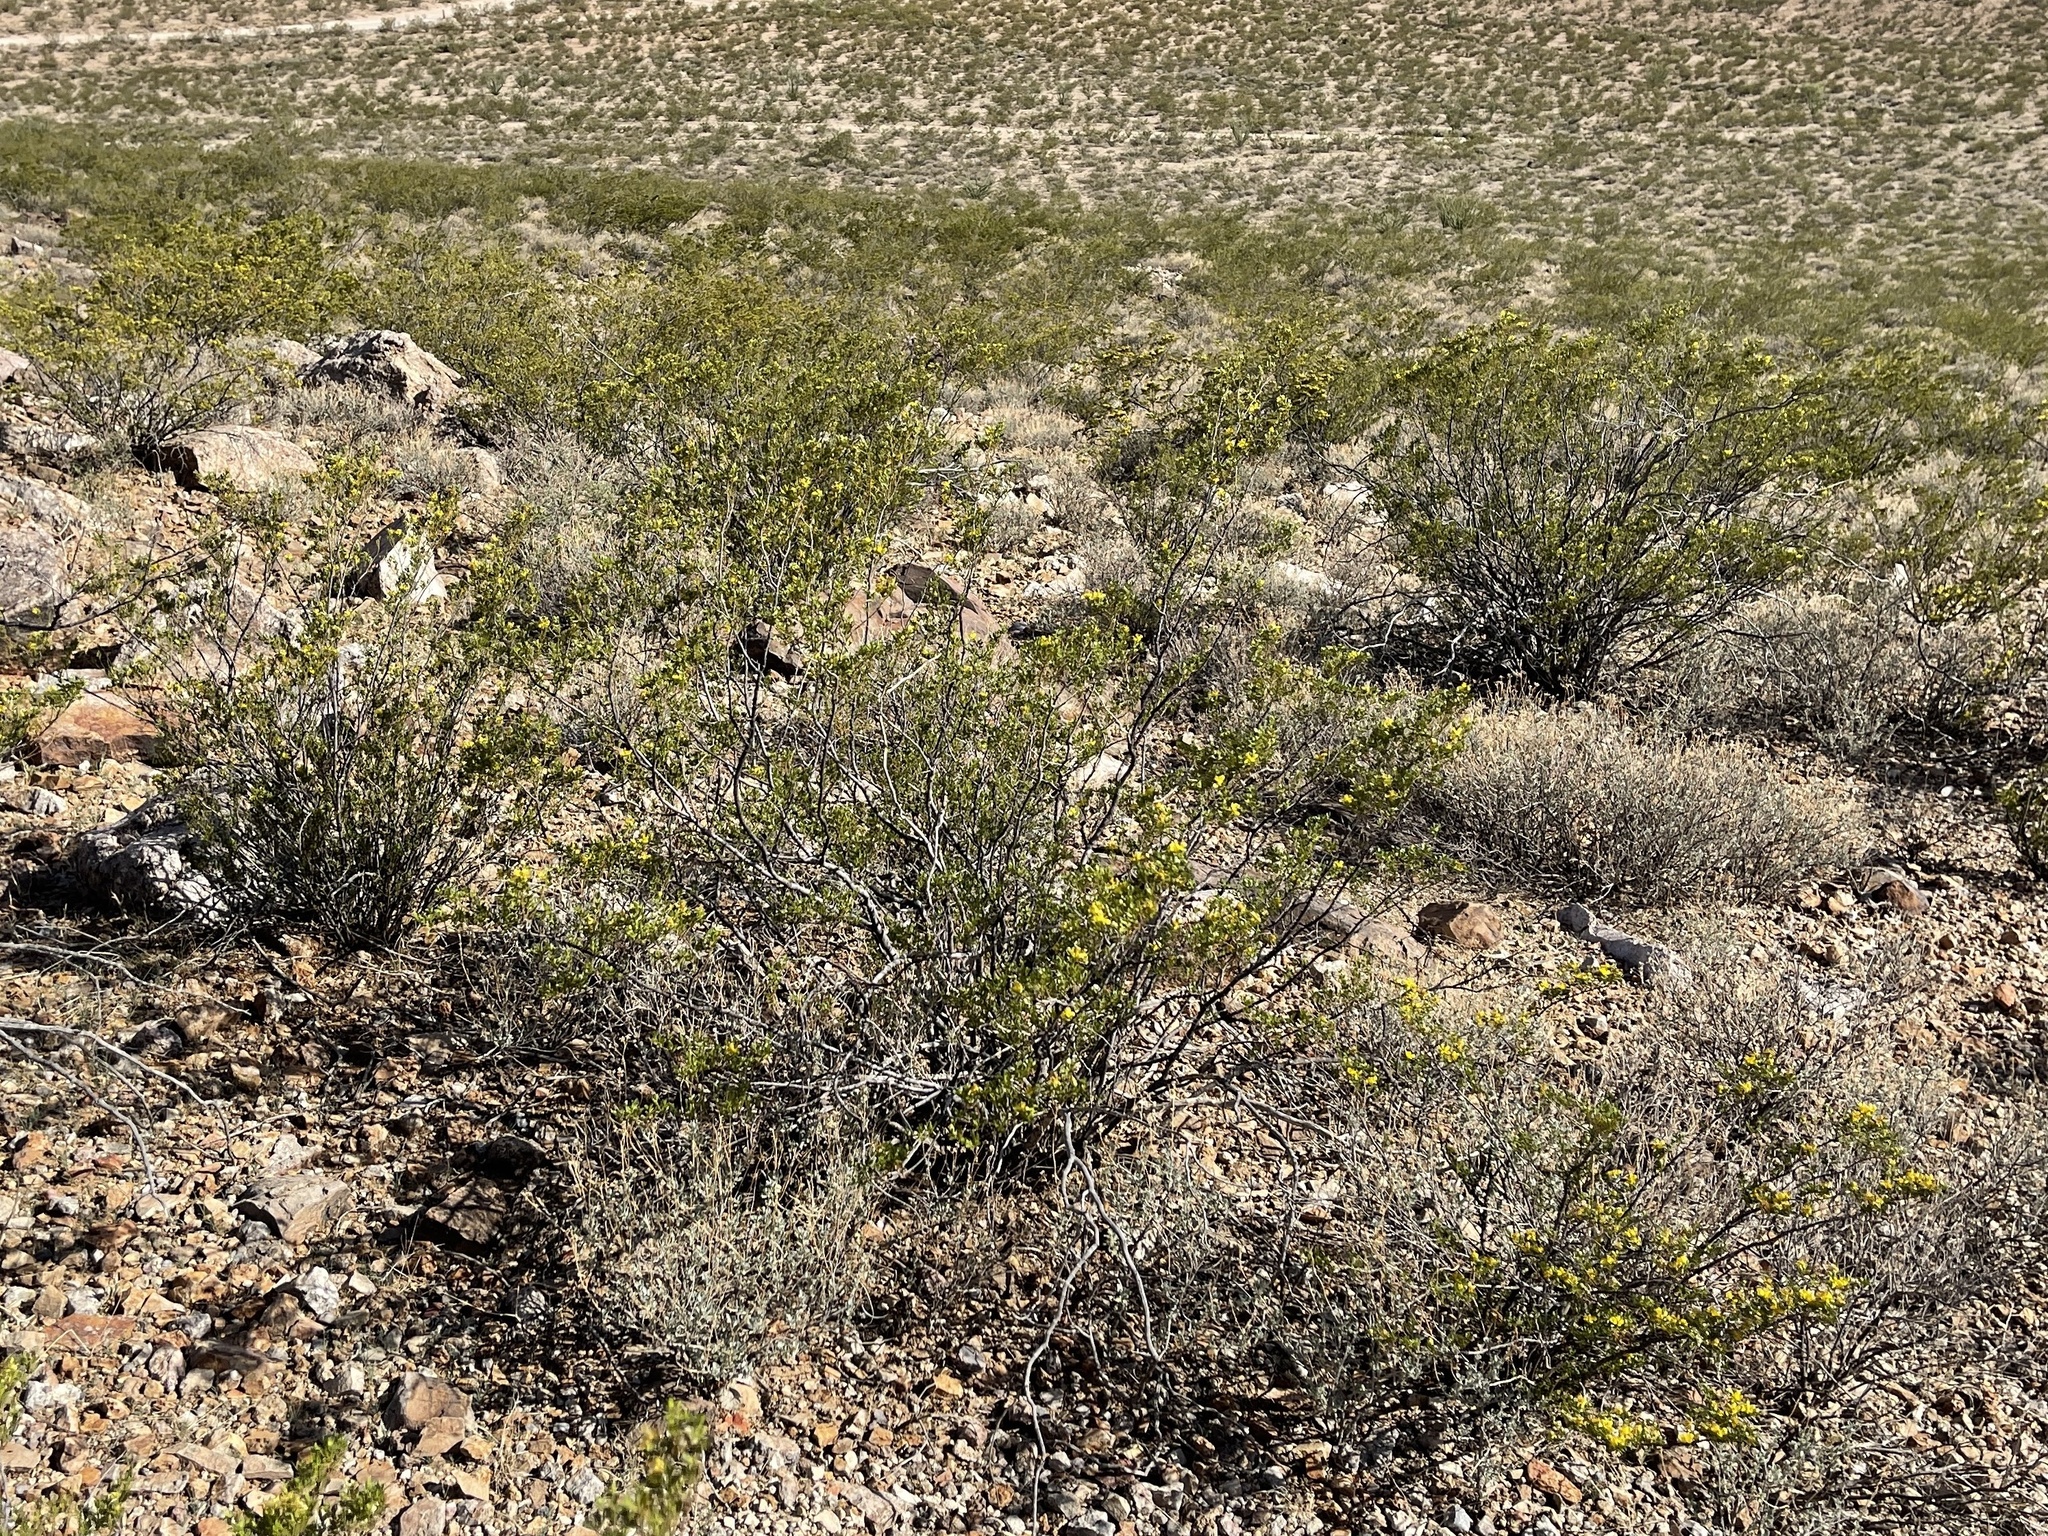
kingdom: Plantae
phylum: Tracheophyta
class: Magnoliopsida
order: Zygophyllales
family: Zygophyllaceae
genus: Larrea
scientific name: Larrea tridentata
